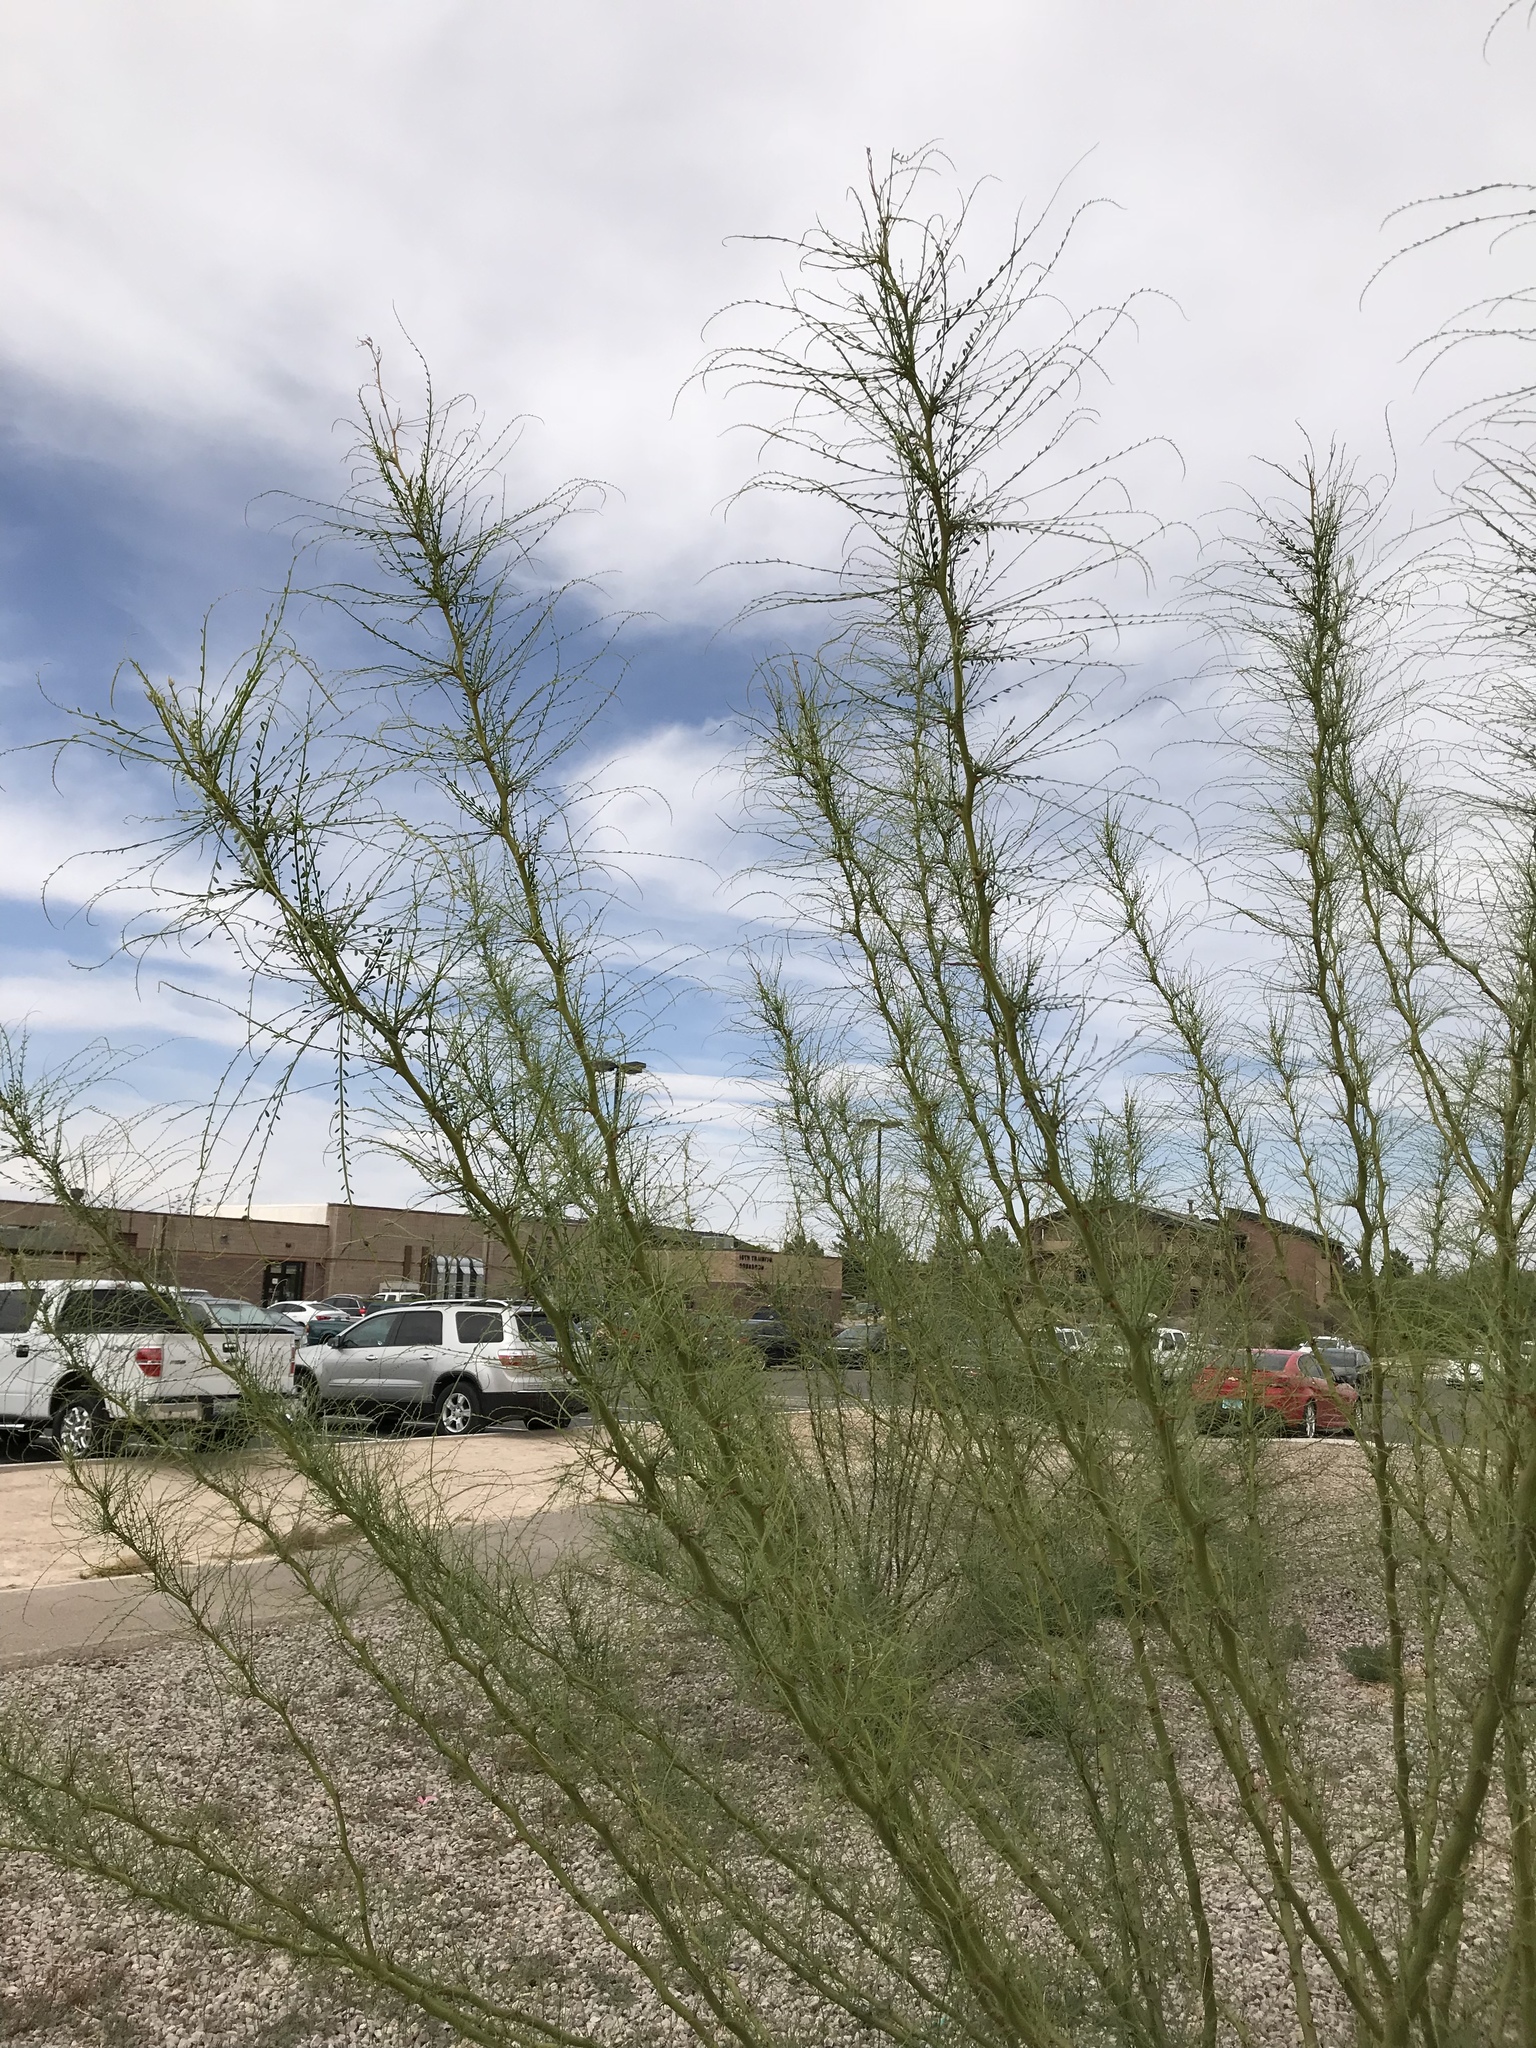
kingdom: Plantae
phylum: Tracheophyta
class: Magnoliopsida
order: Fabales
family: Fabaceae
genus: Parkinsonia
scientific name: Parkinsonia aculeata
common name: Jerusalem thorn
